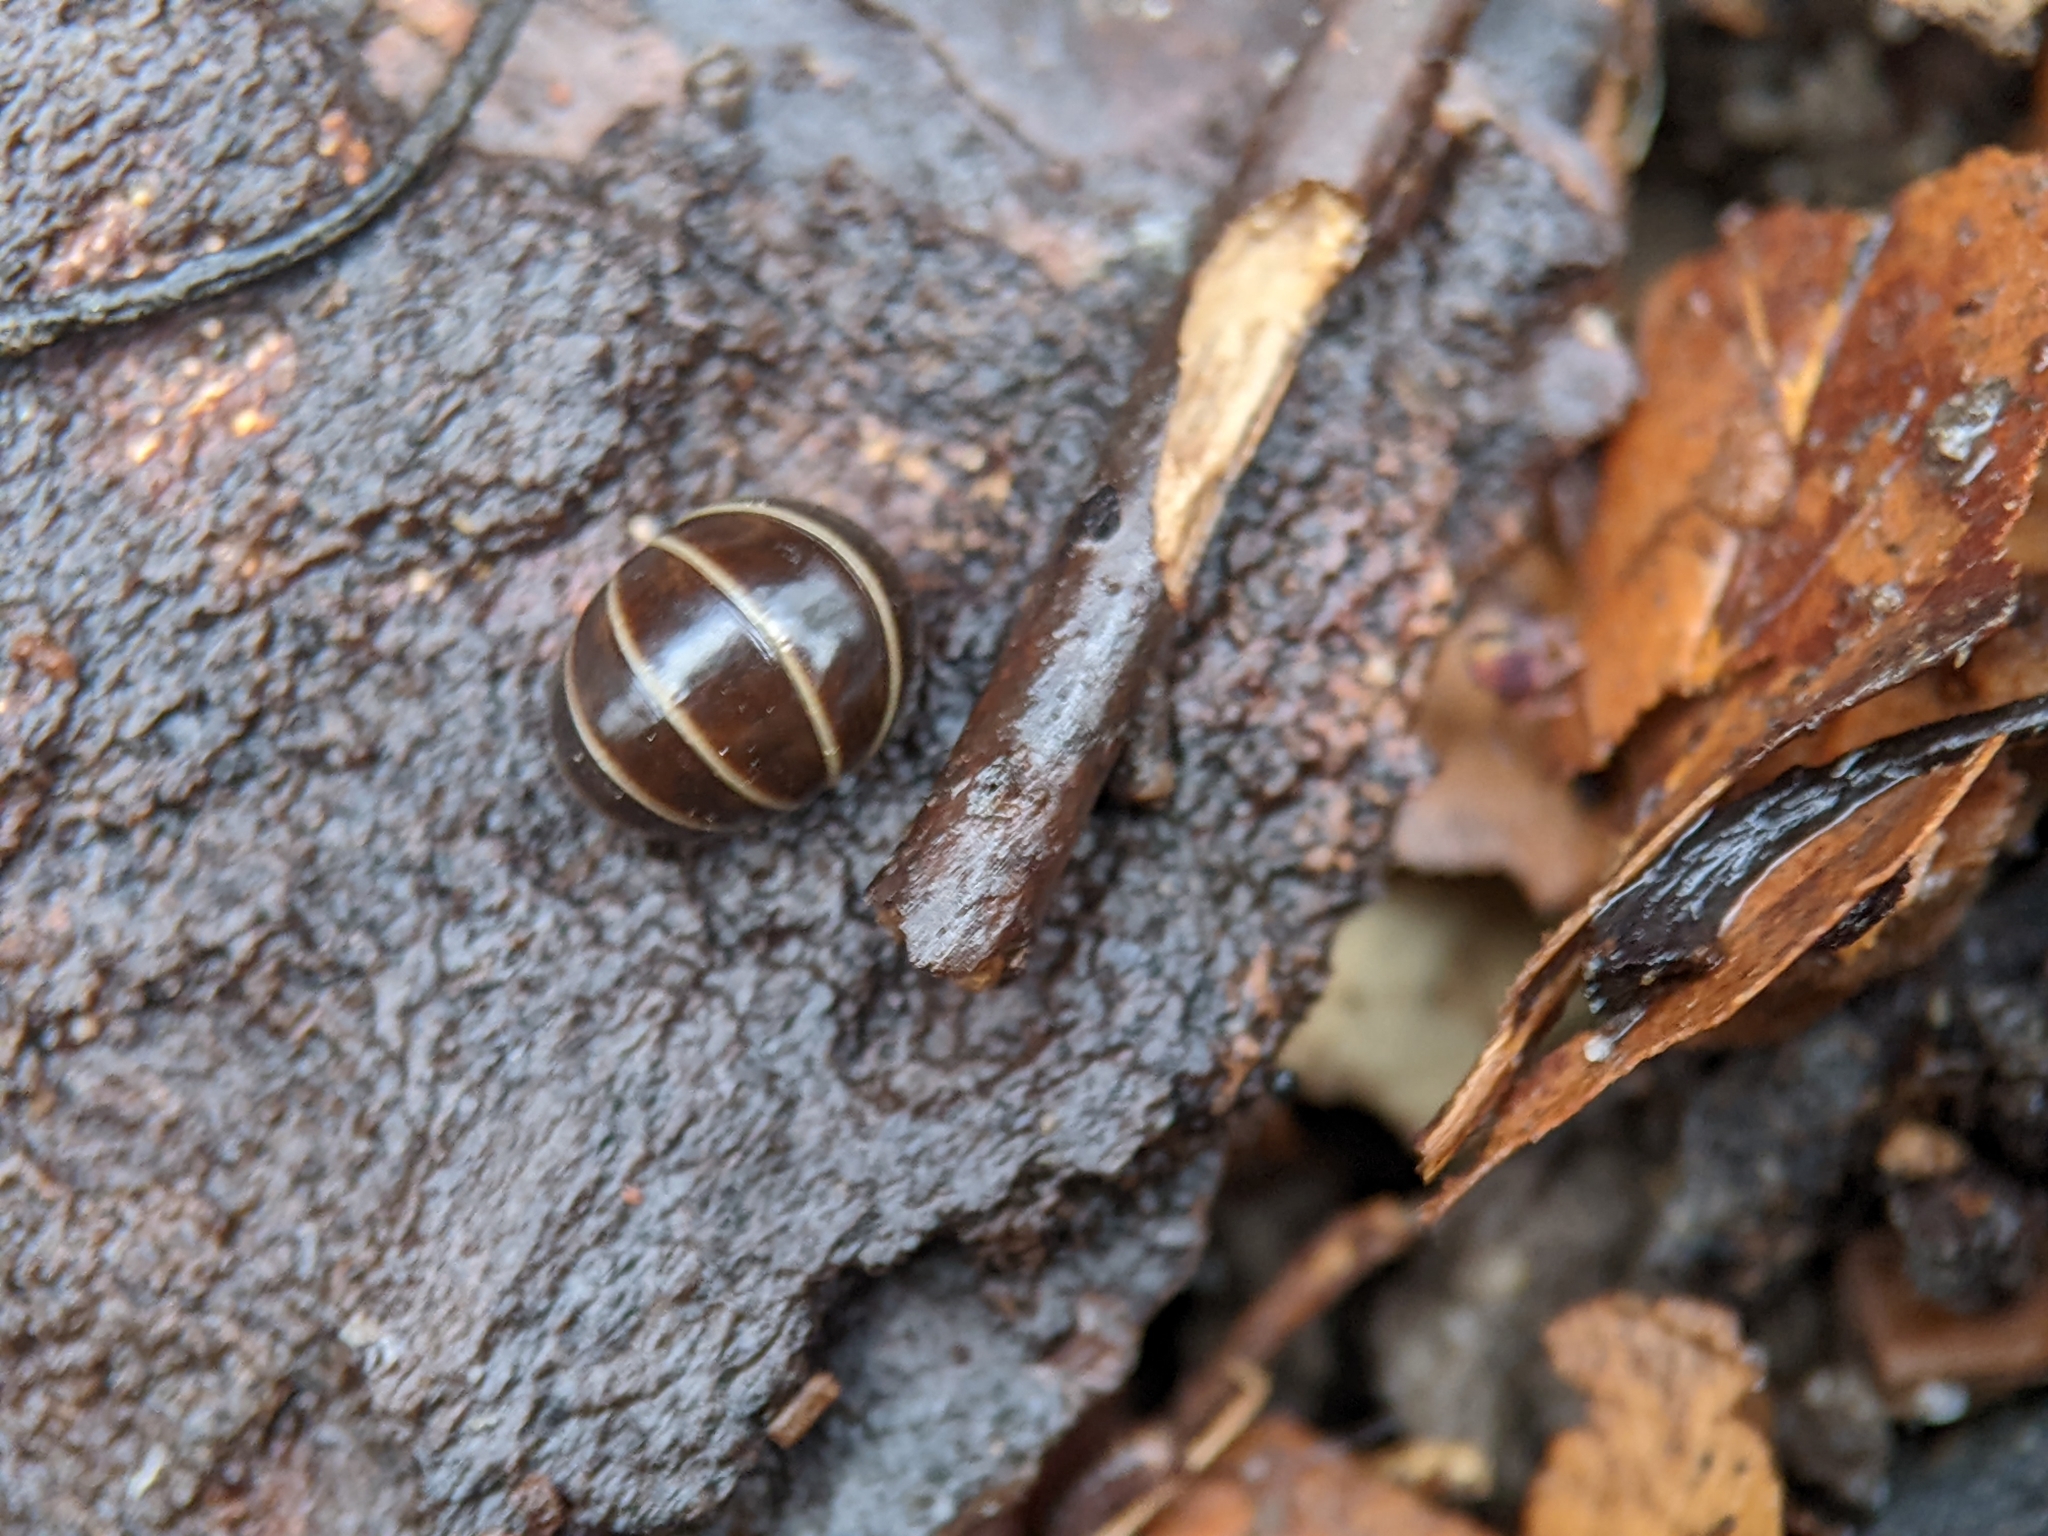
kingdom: Animalia
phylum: Arthropoda
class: Diplopoda
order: Glomerida
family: Glomeridae
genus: Glomeris
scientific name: Glomeris marginata
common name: Bordered pill millipede
